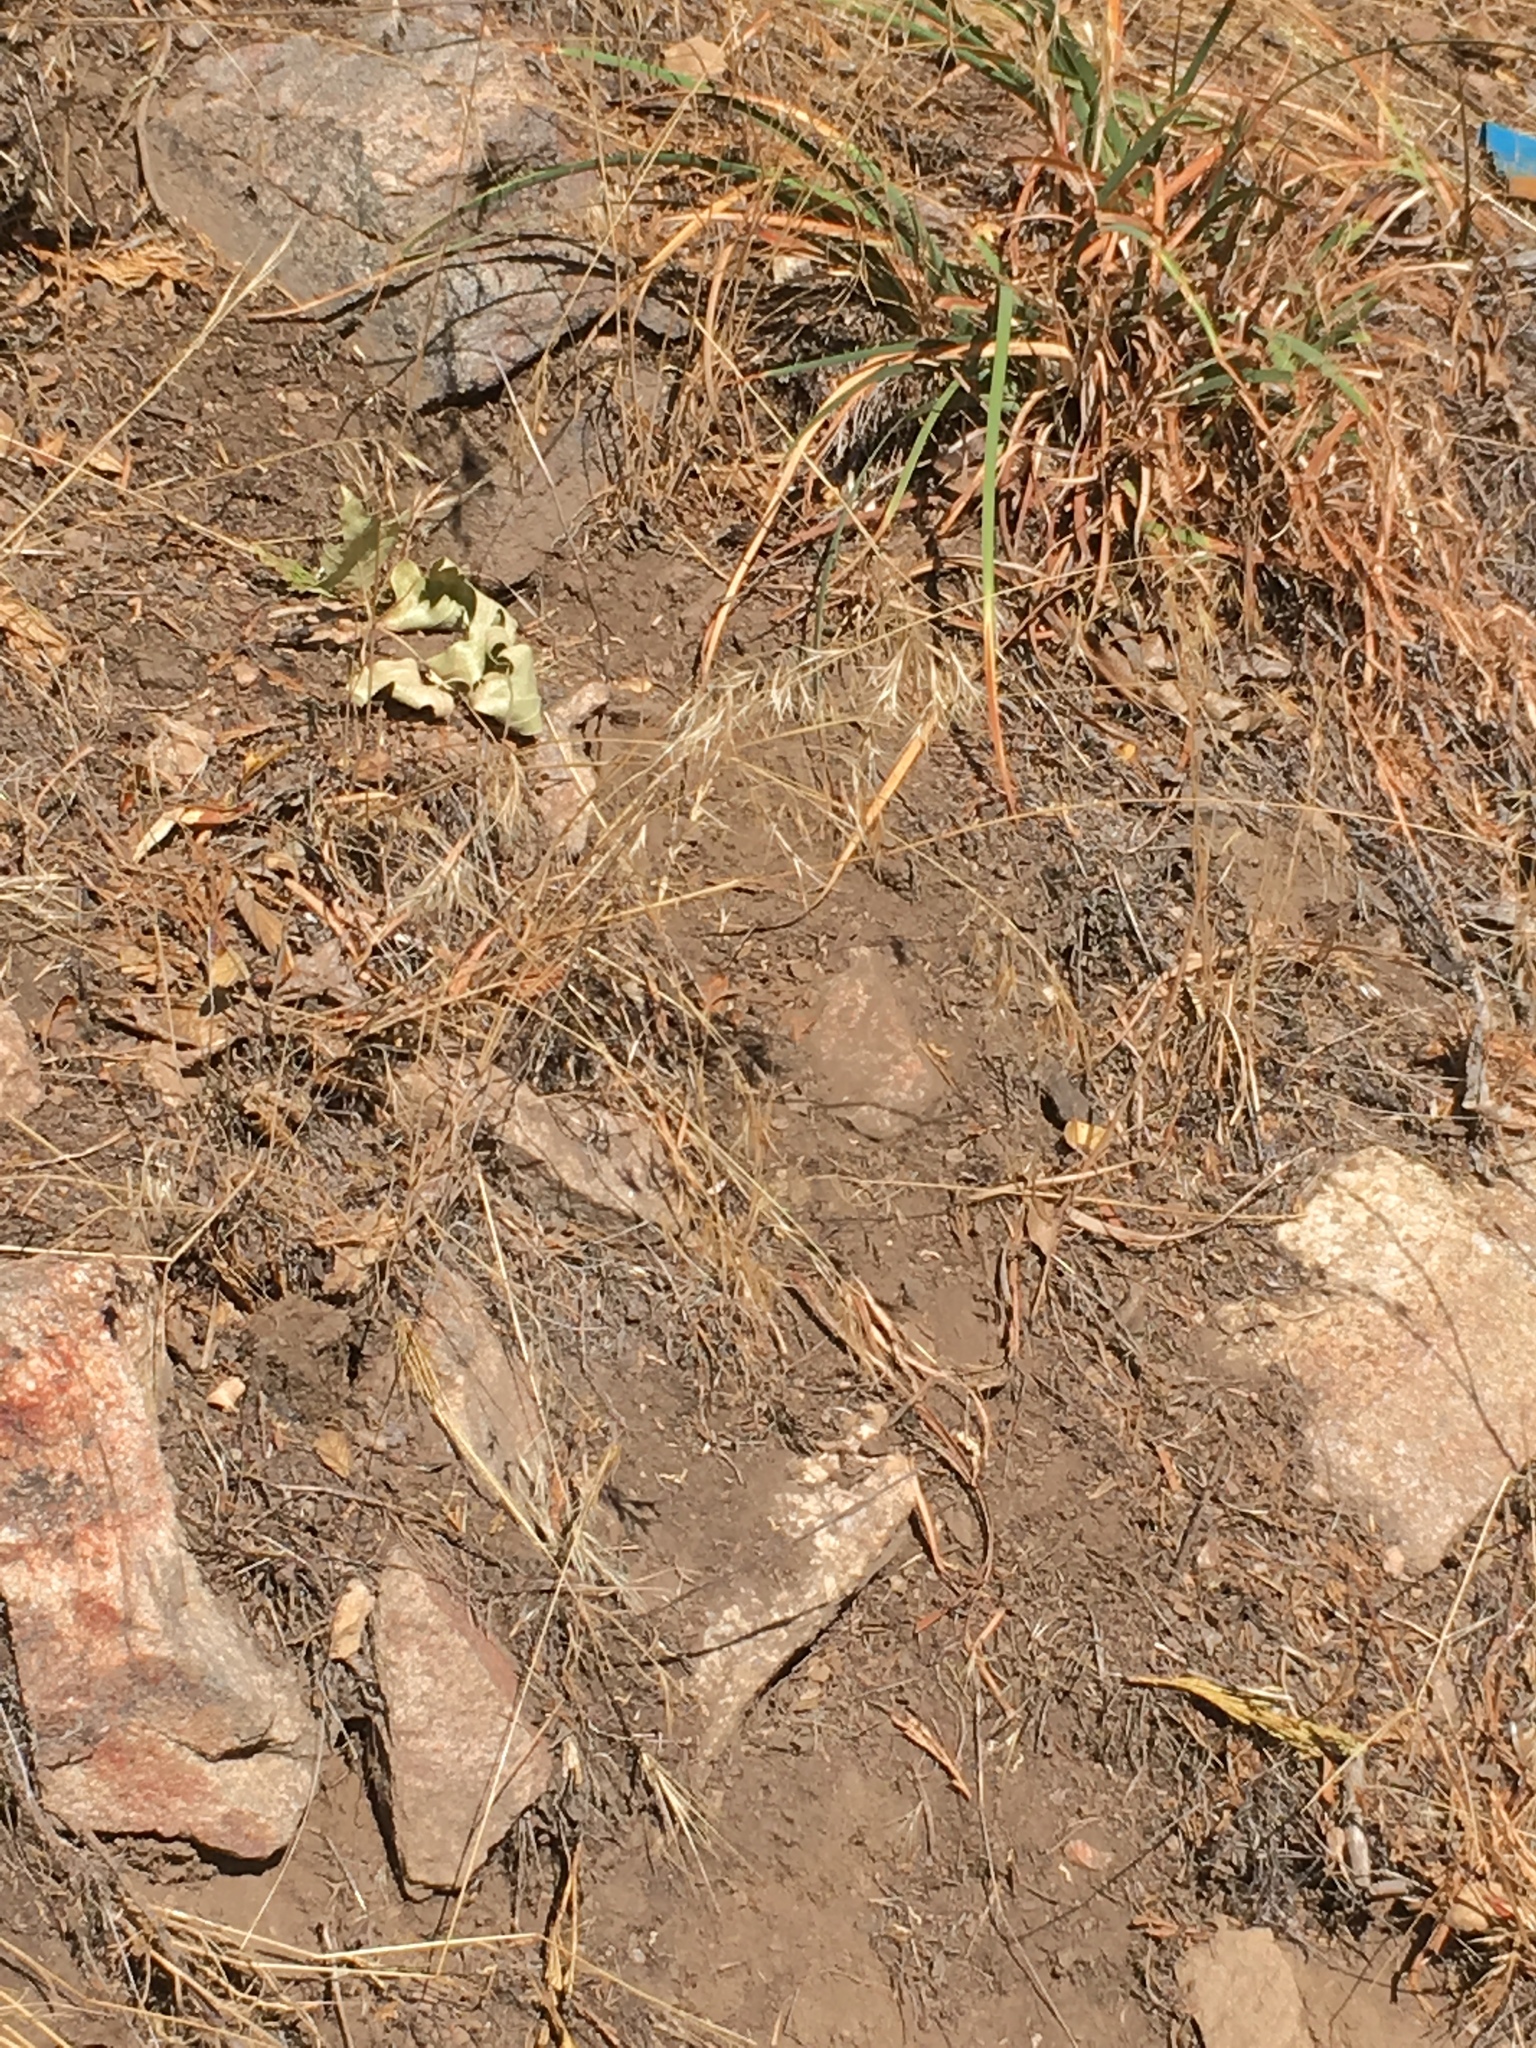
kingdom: Plantae
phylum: Tracheophyta
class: Liliopsida
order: Poales
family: Poaceae
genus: Bromus
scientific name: Bromus tectorum
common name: Cheatgrass
